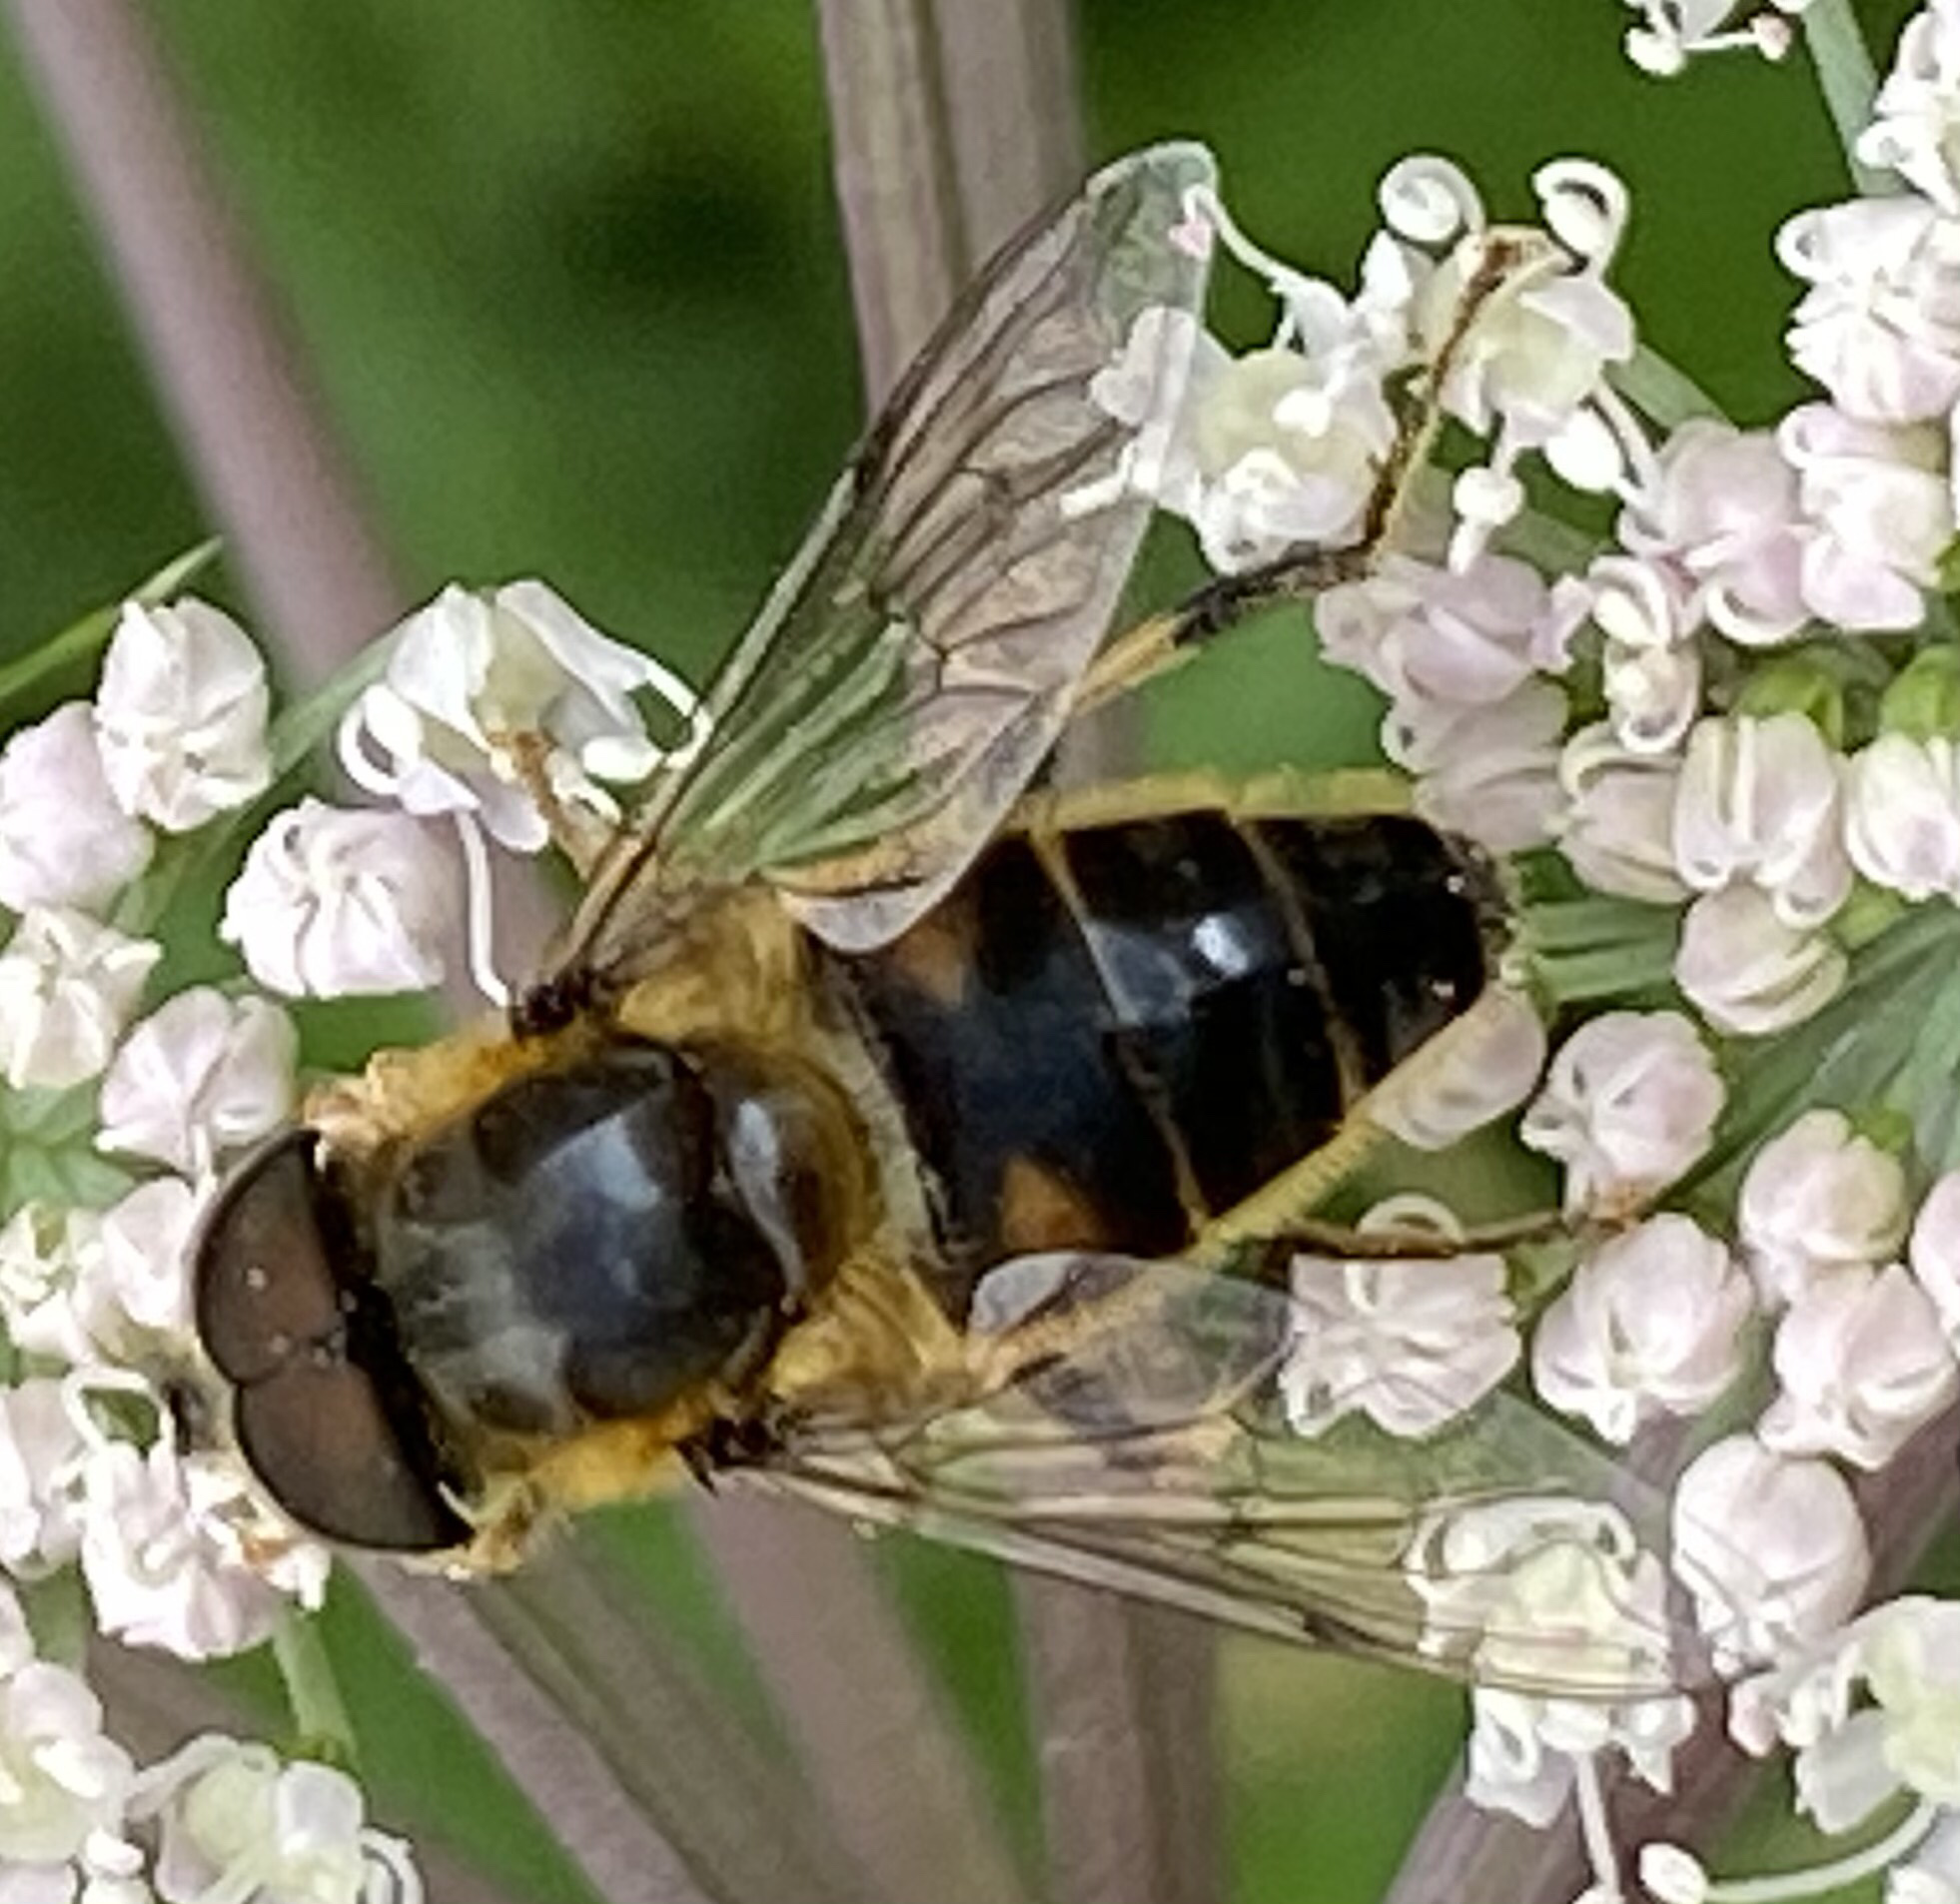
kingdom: Animalia
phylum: Arthropoda
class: Insecta
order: Diptera
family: Syrphidae
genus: Eristalis
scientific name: Eristalis pertinax
